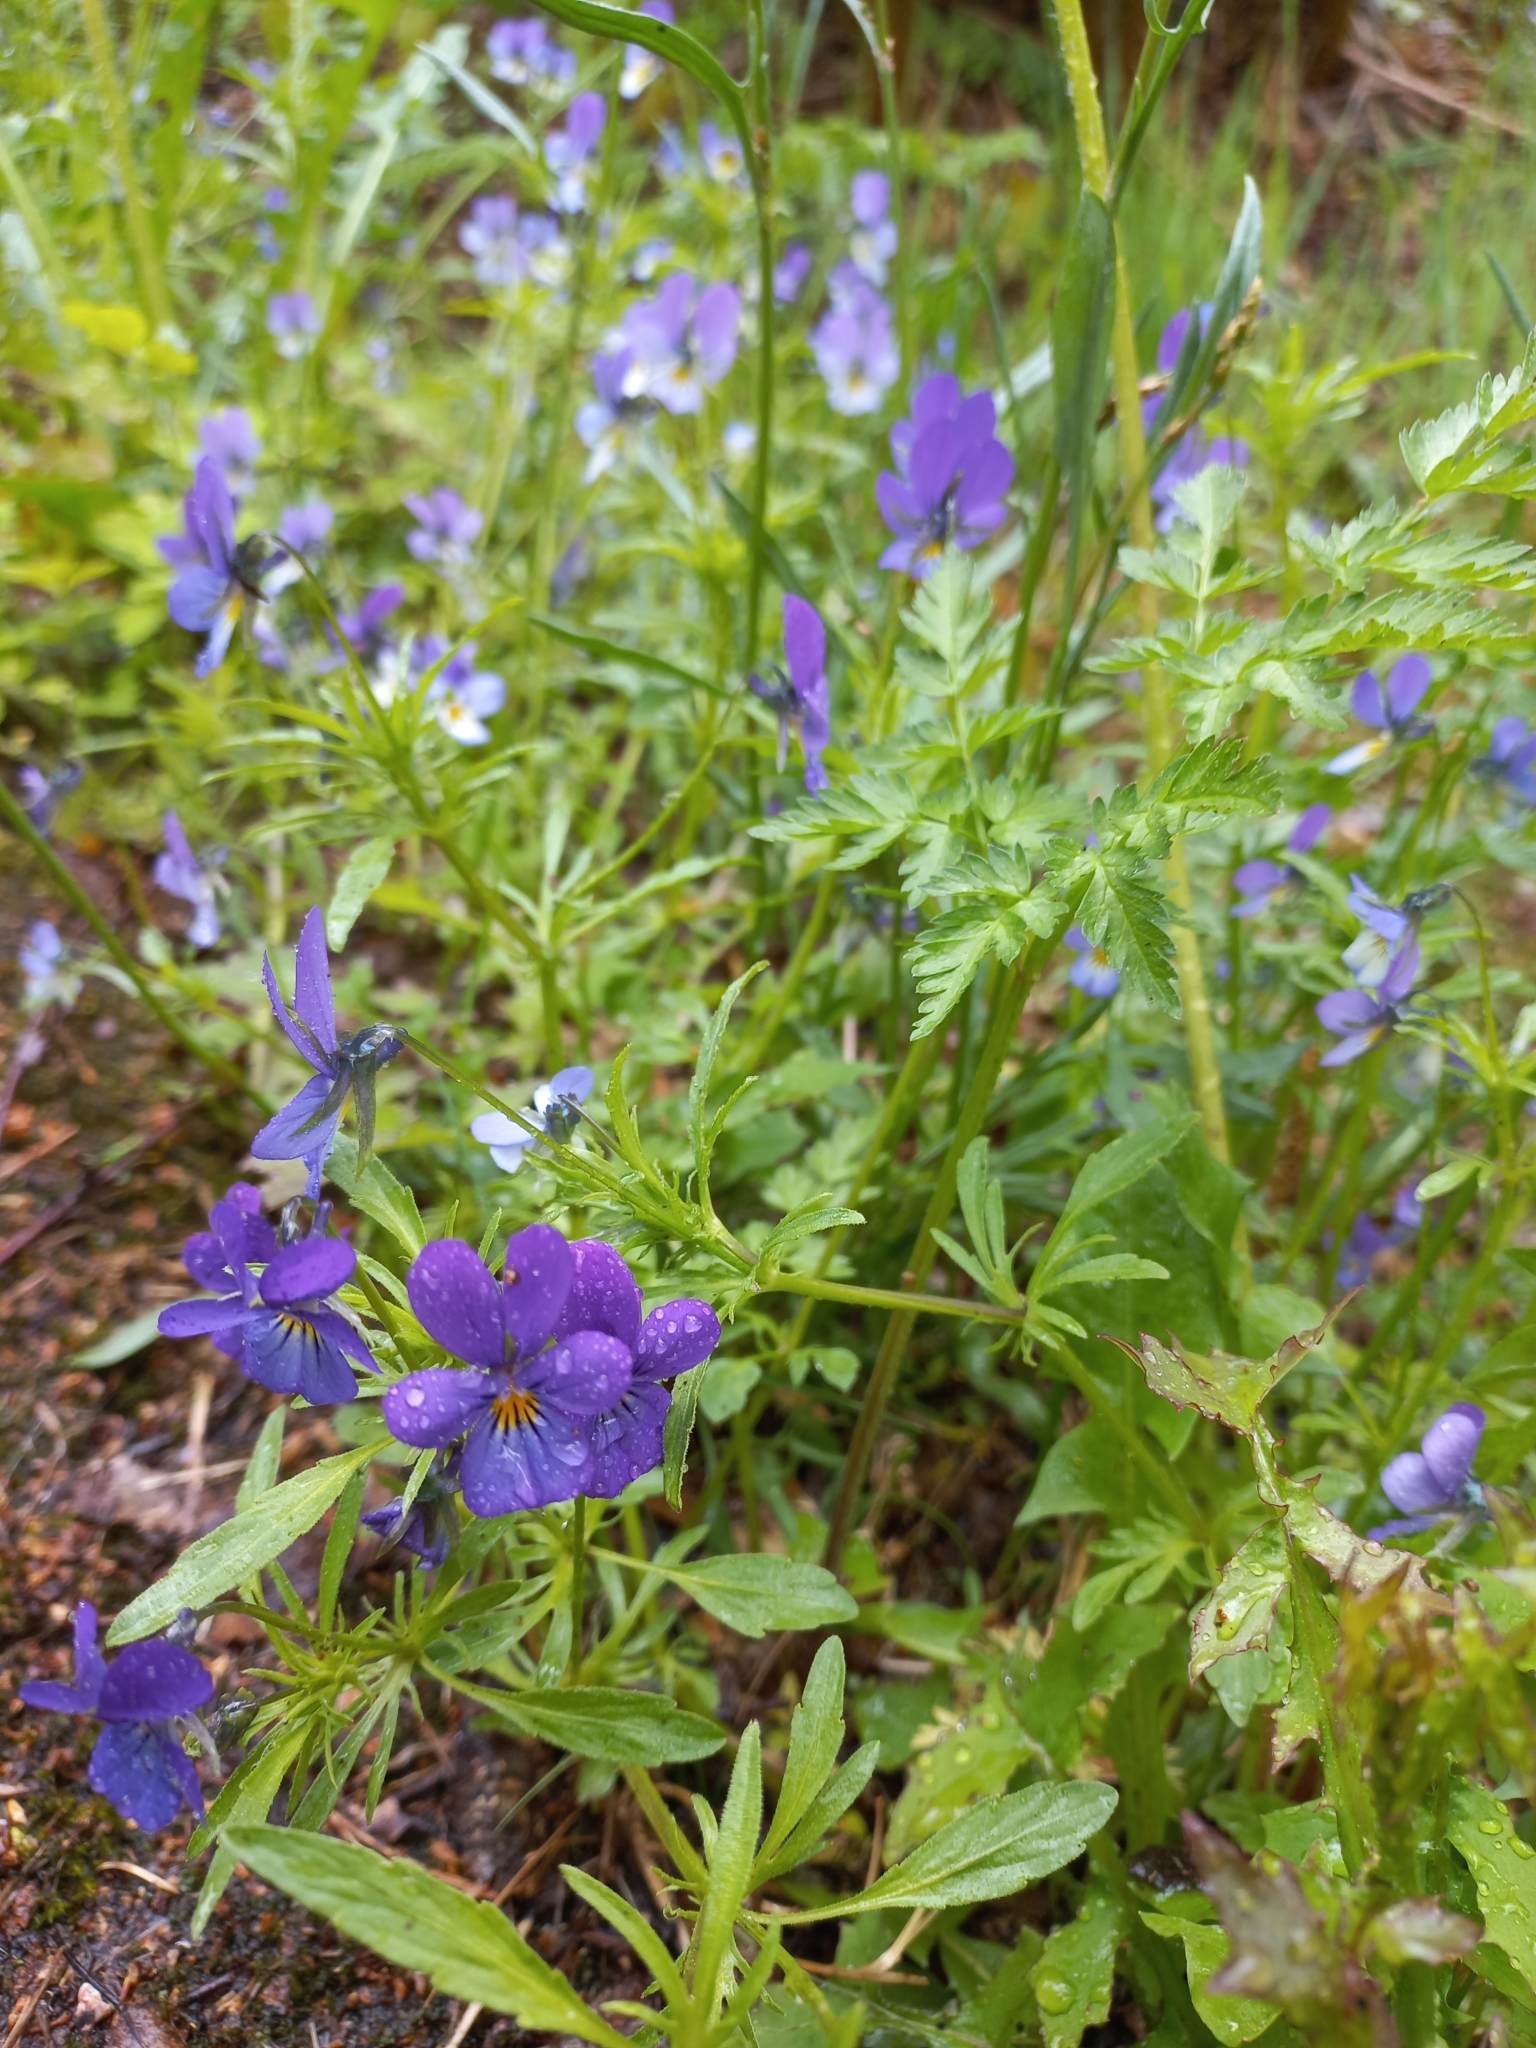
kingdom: Plantae
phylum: Tracheophyta
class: Magnoliopsida
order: Malpighiales
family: Violaceae
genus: Viola
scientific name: Viola tricolor
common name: Pansy
